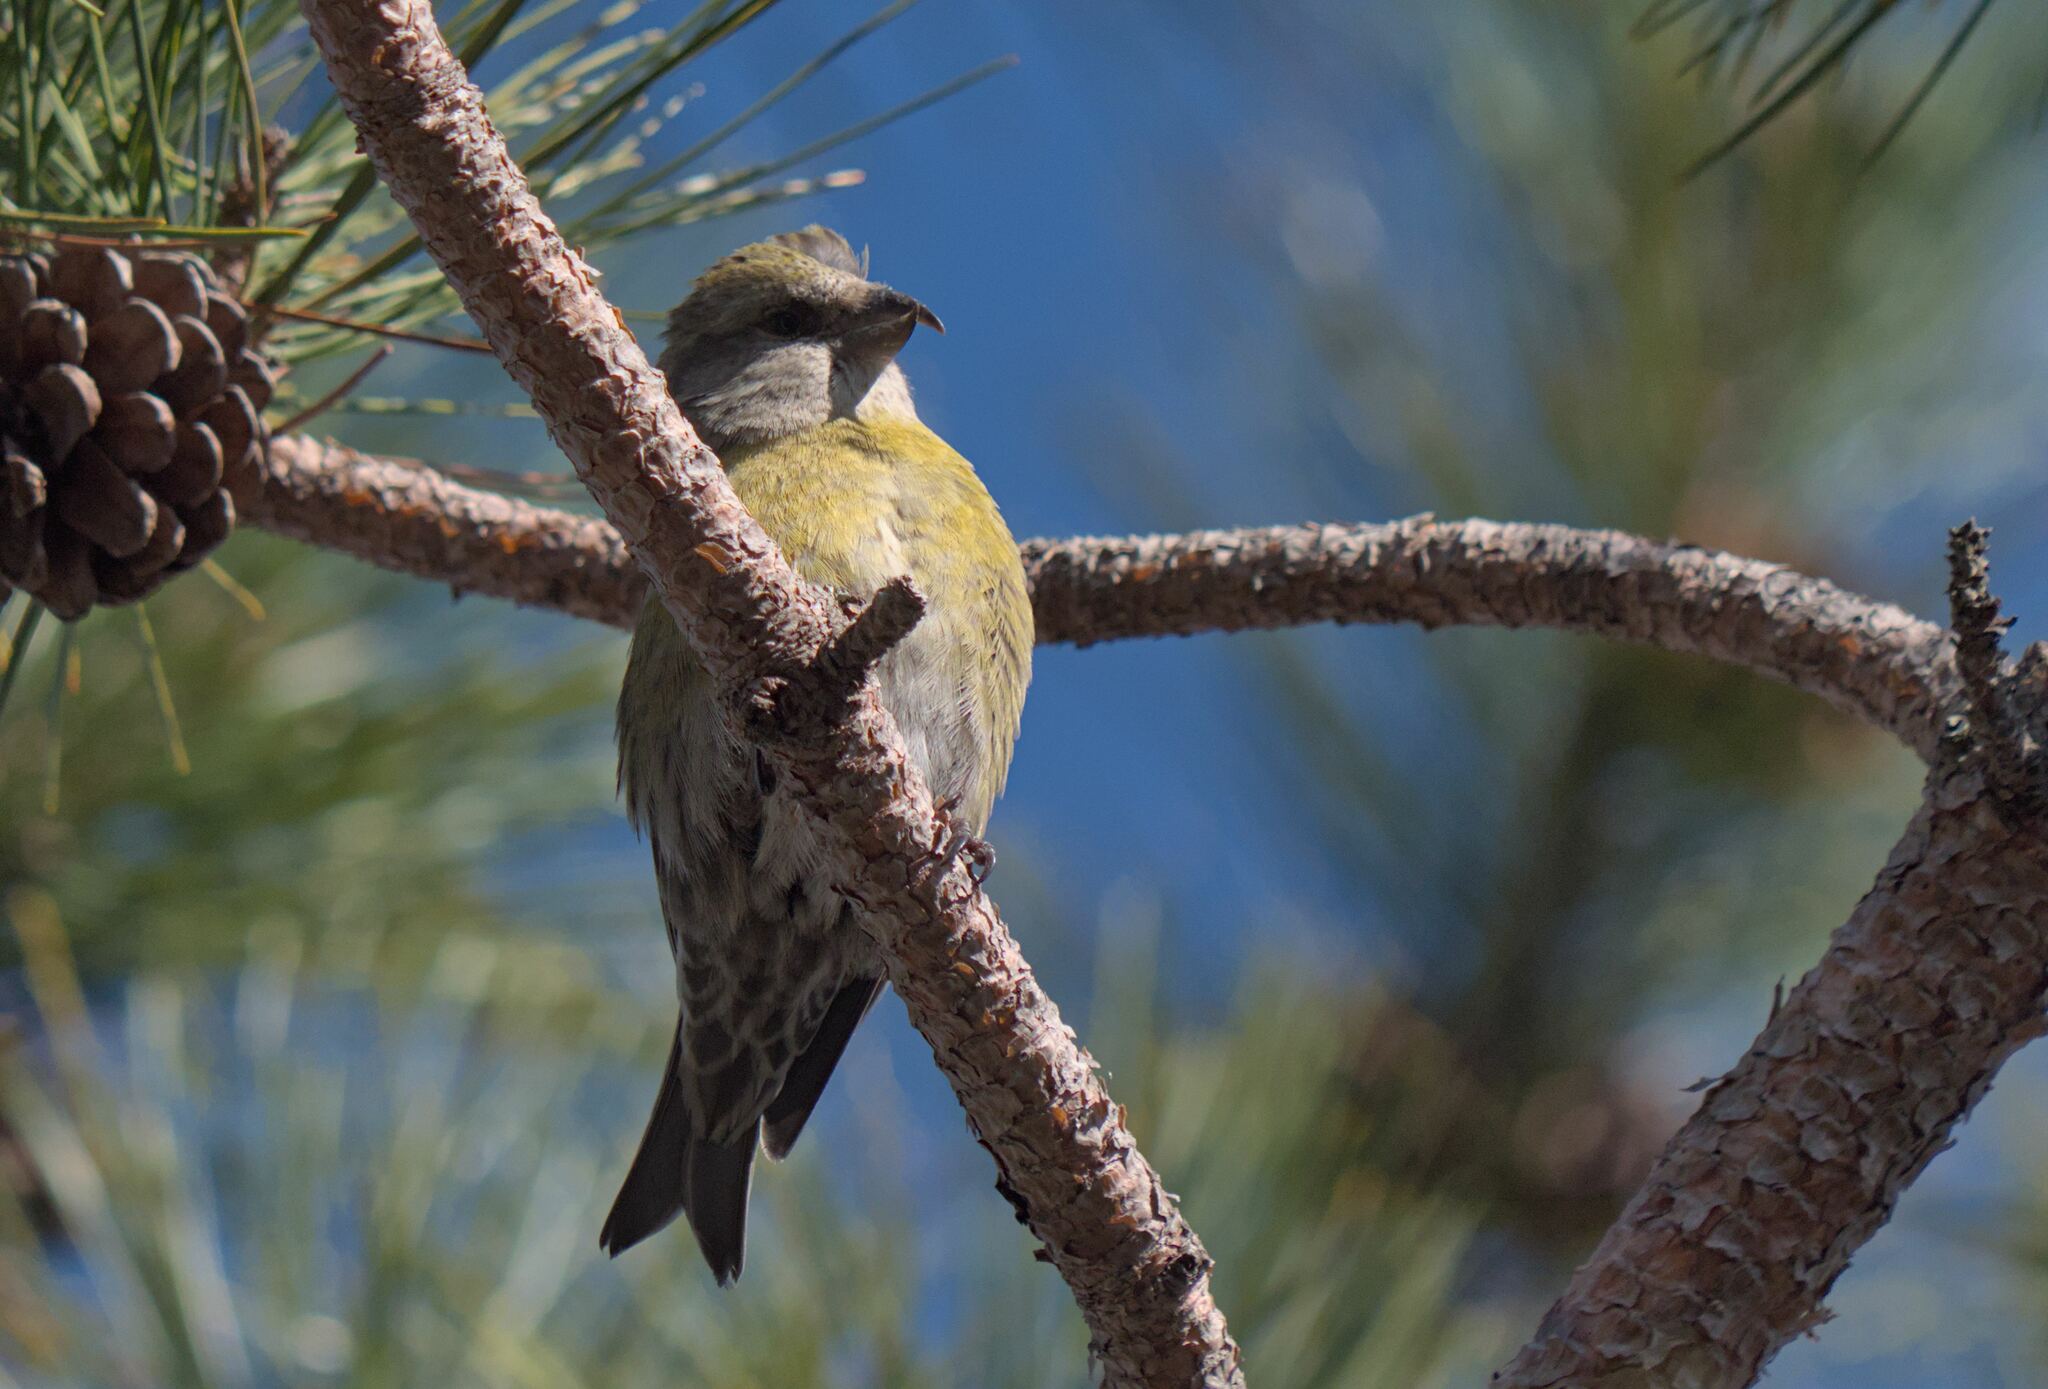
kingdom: Animalia
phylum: Chordata
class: Aves
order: Passeriformes
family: Fringillidae
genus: Loxia
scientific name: Loxia curvirostra
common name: Red crossbill
